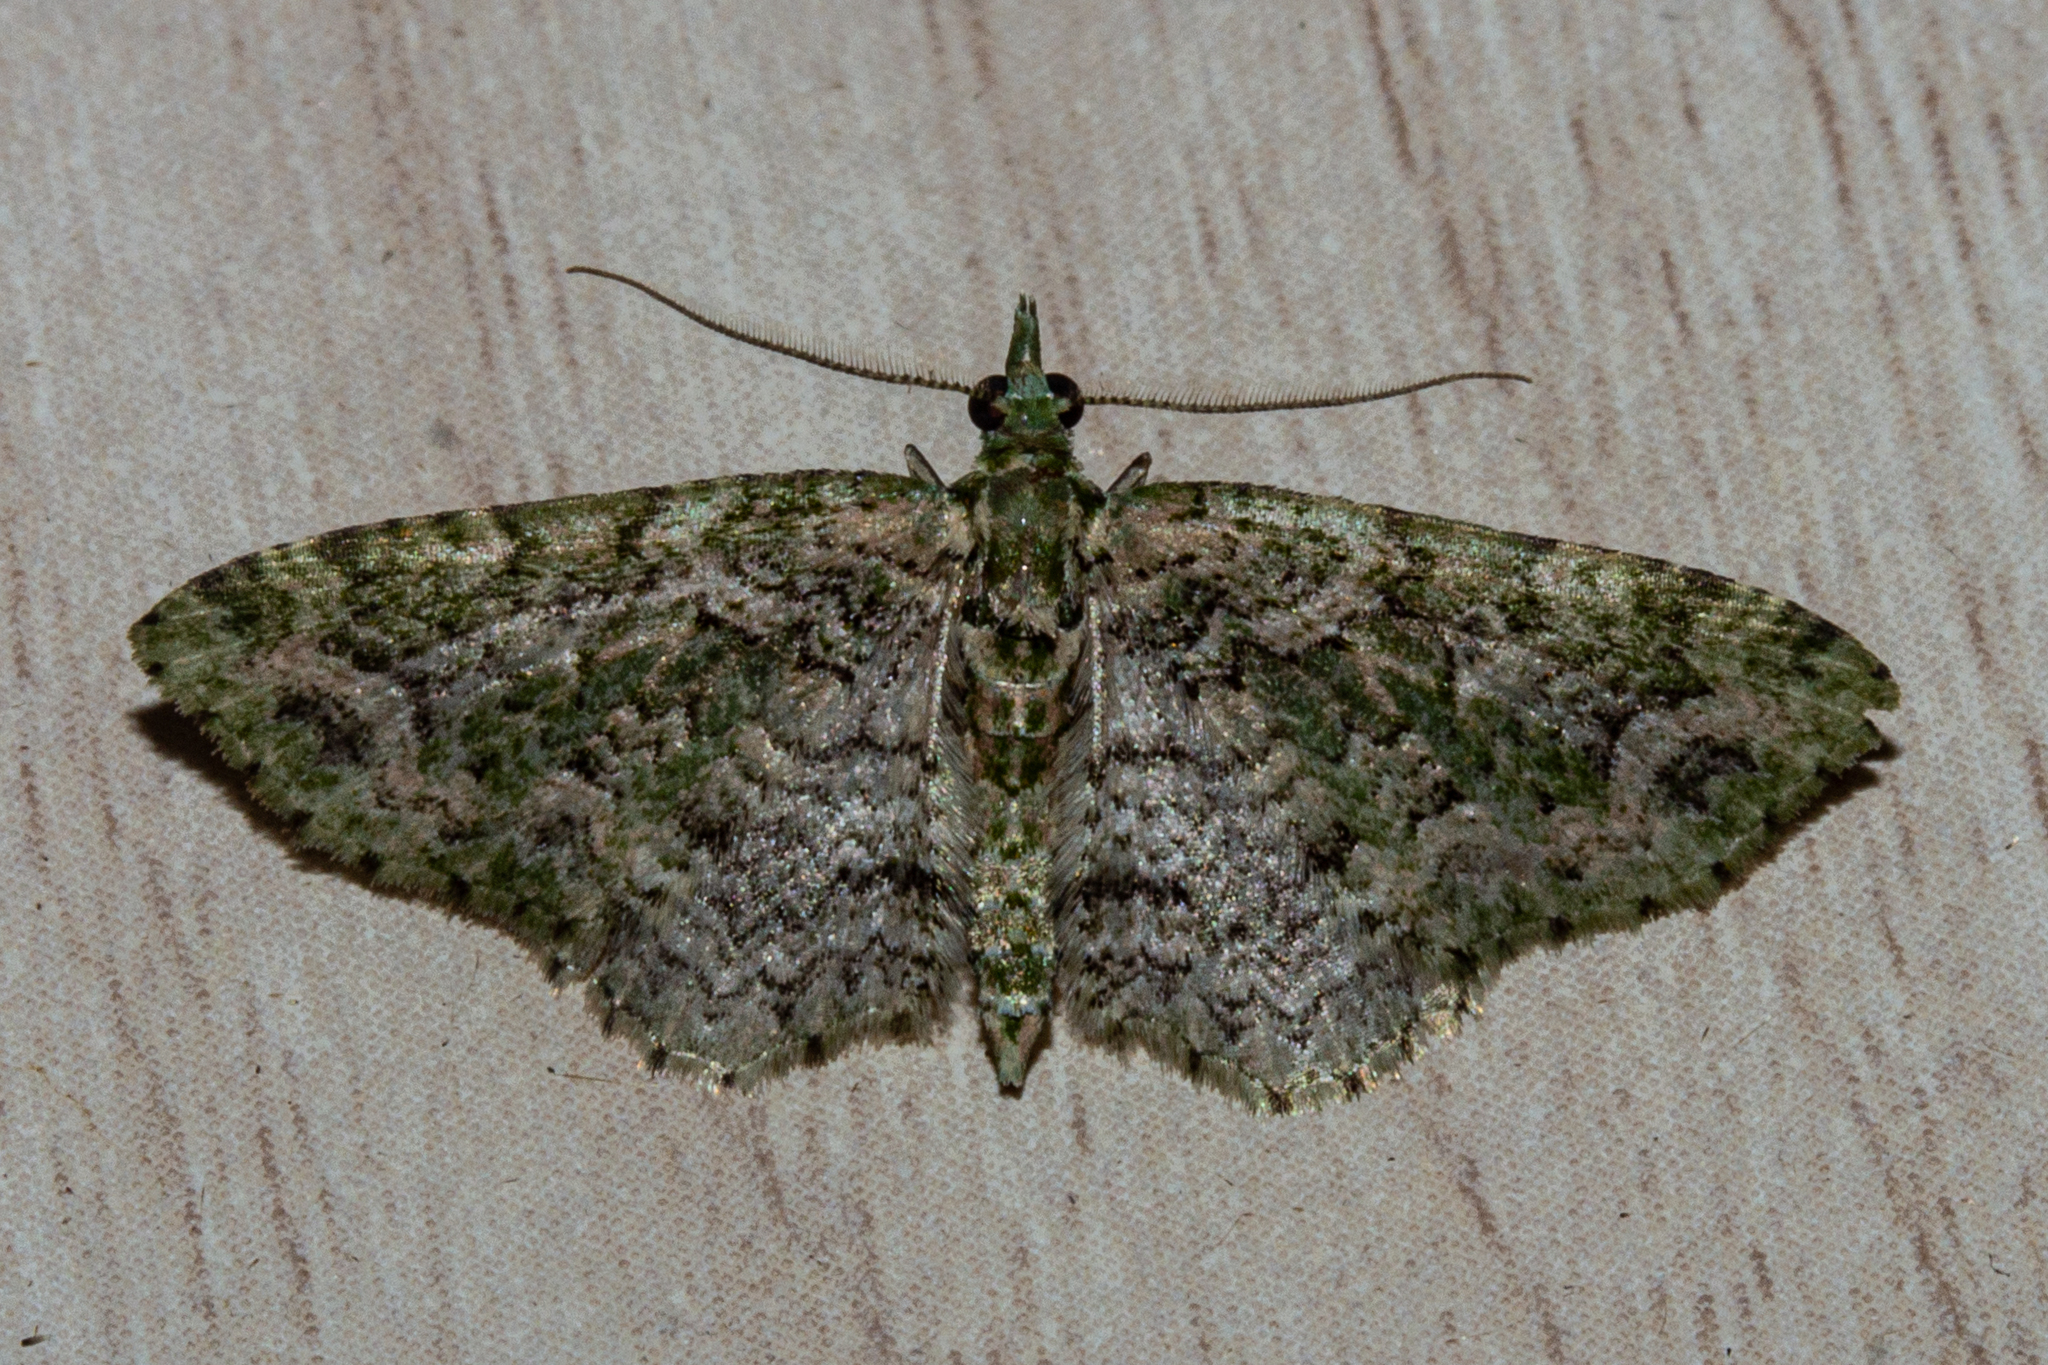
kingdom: Animalia
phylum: Arthropoda
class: Insecta
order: Lepidoptera
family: Geometridae
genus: Pasiphila
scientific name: Pasiphila muscosata
